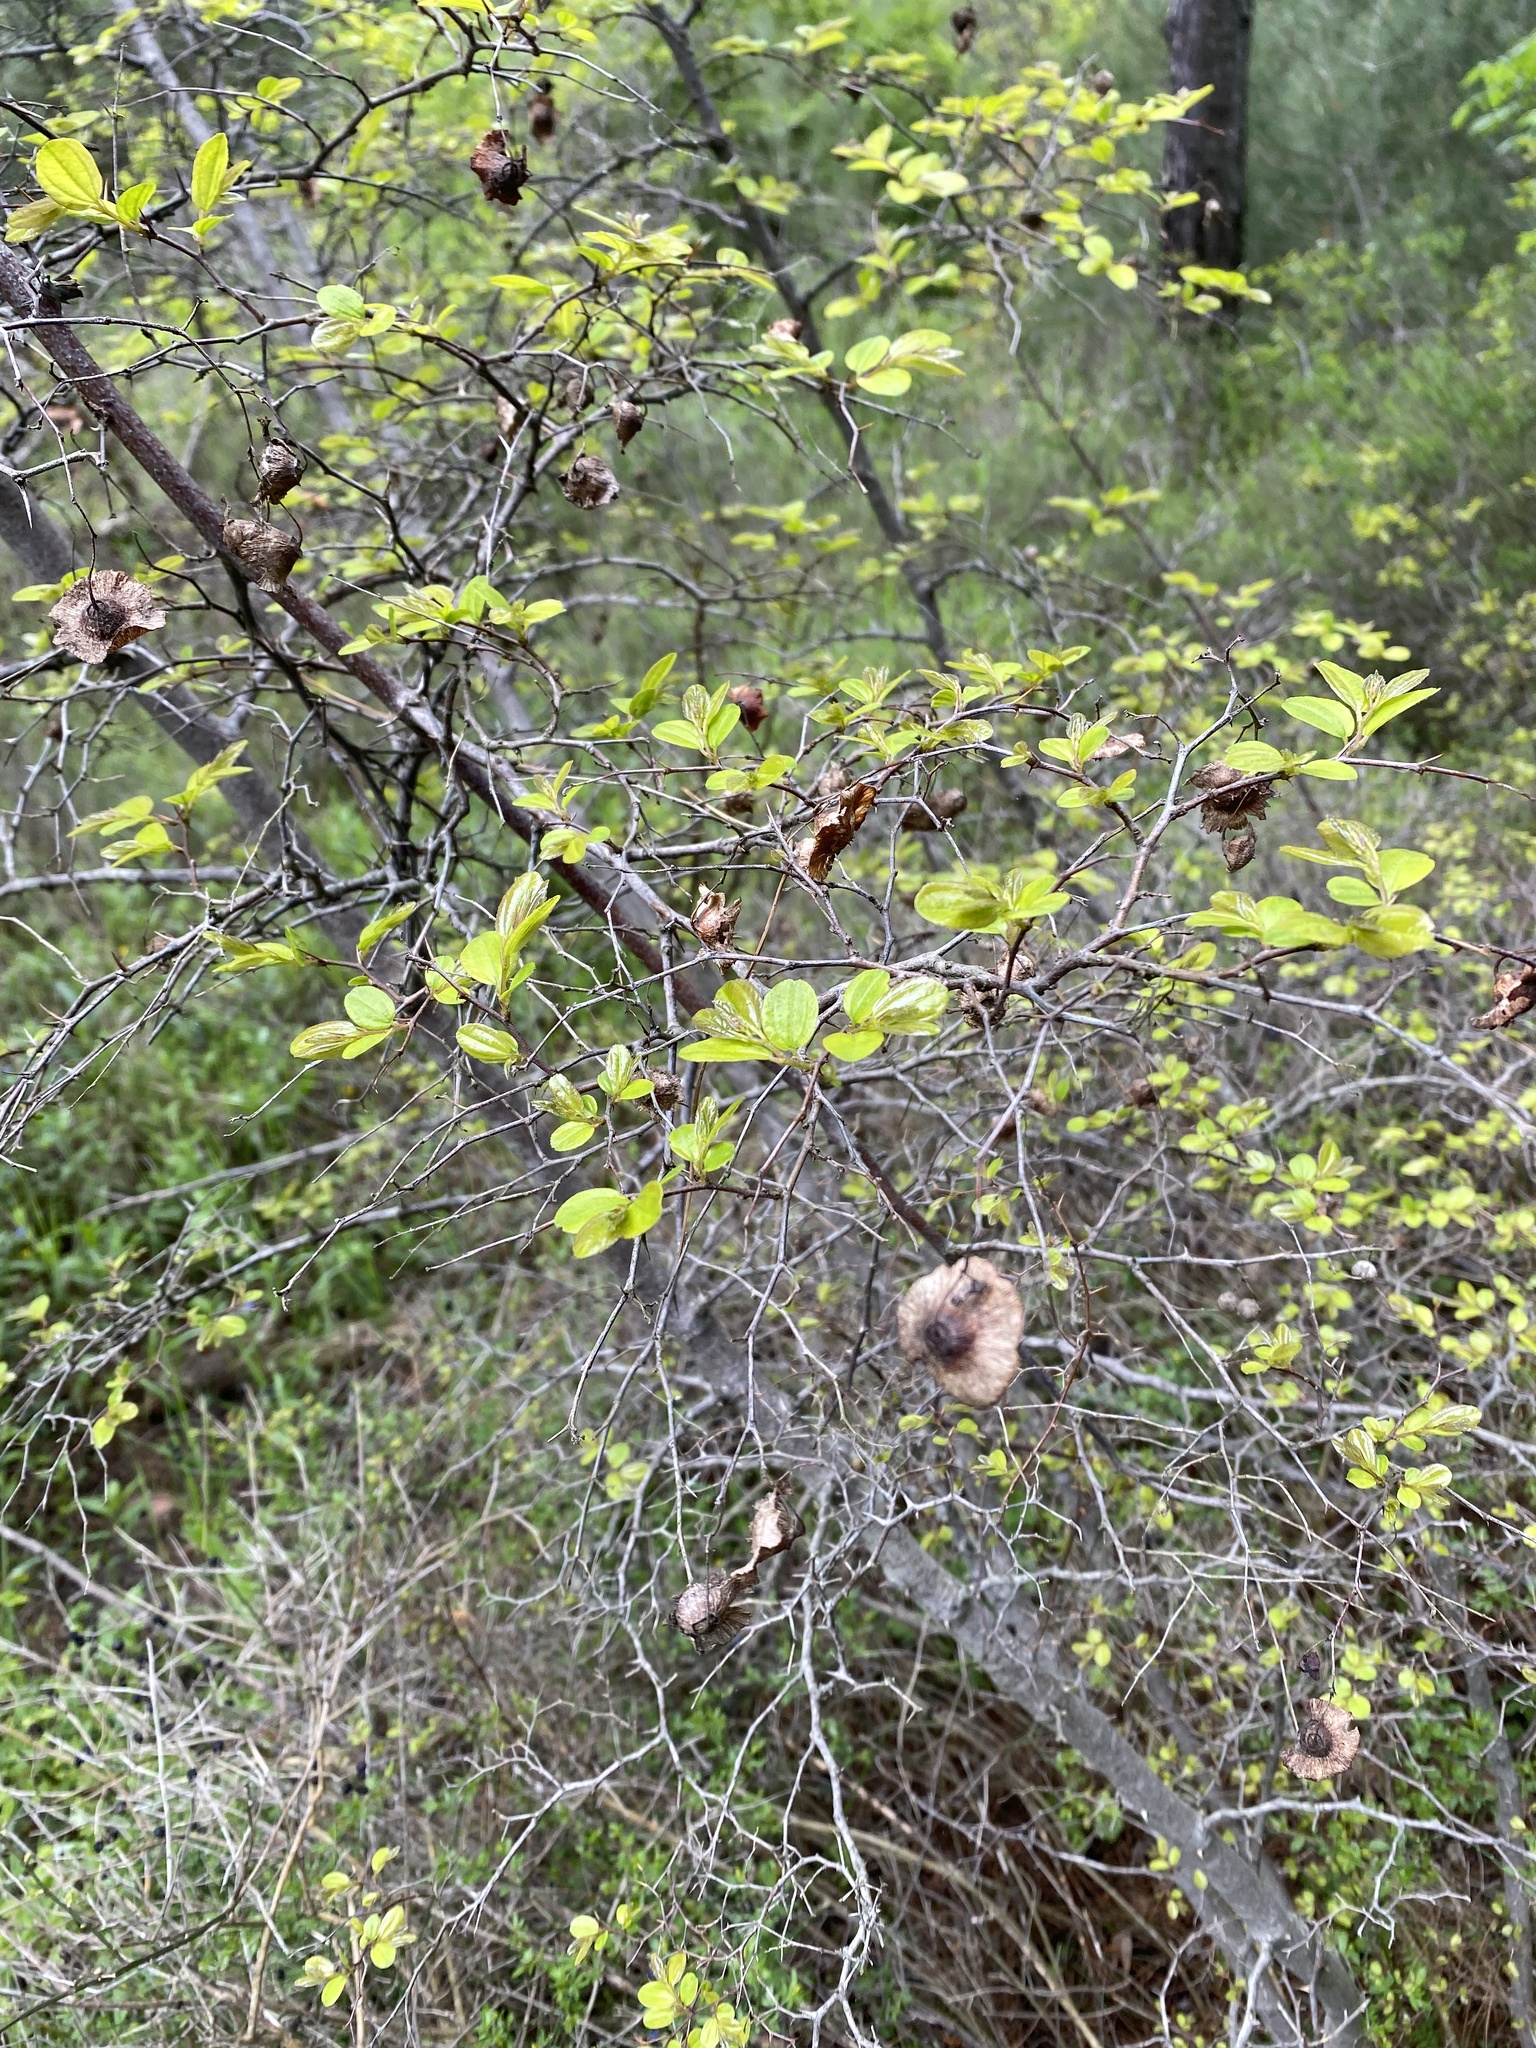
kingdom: Plantae
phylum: Tracheophyta
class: Magnoliopsida
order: Rosales
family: Rhamnaceae
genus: Paliurus
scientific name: Paliurus spina-christi
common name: Jeruselem thorn
